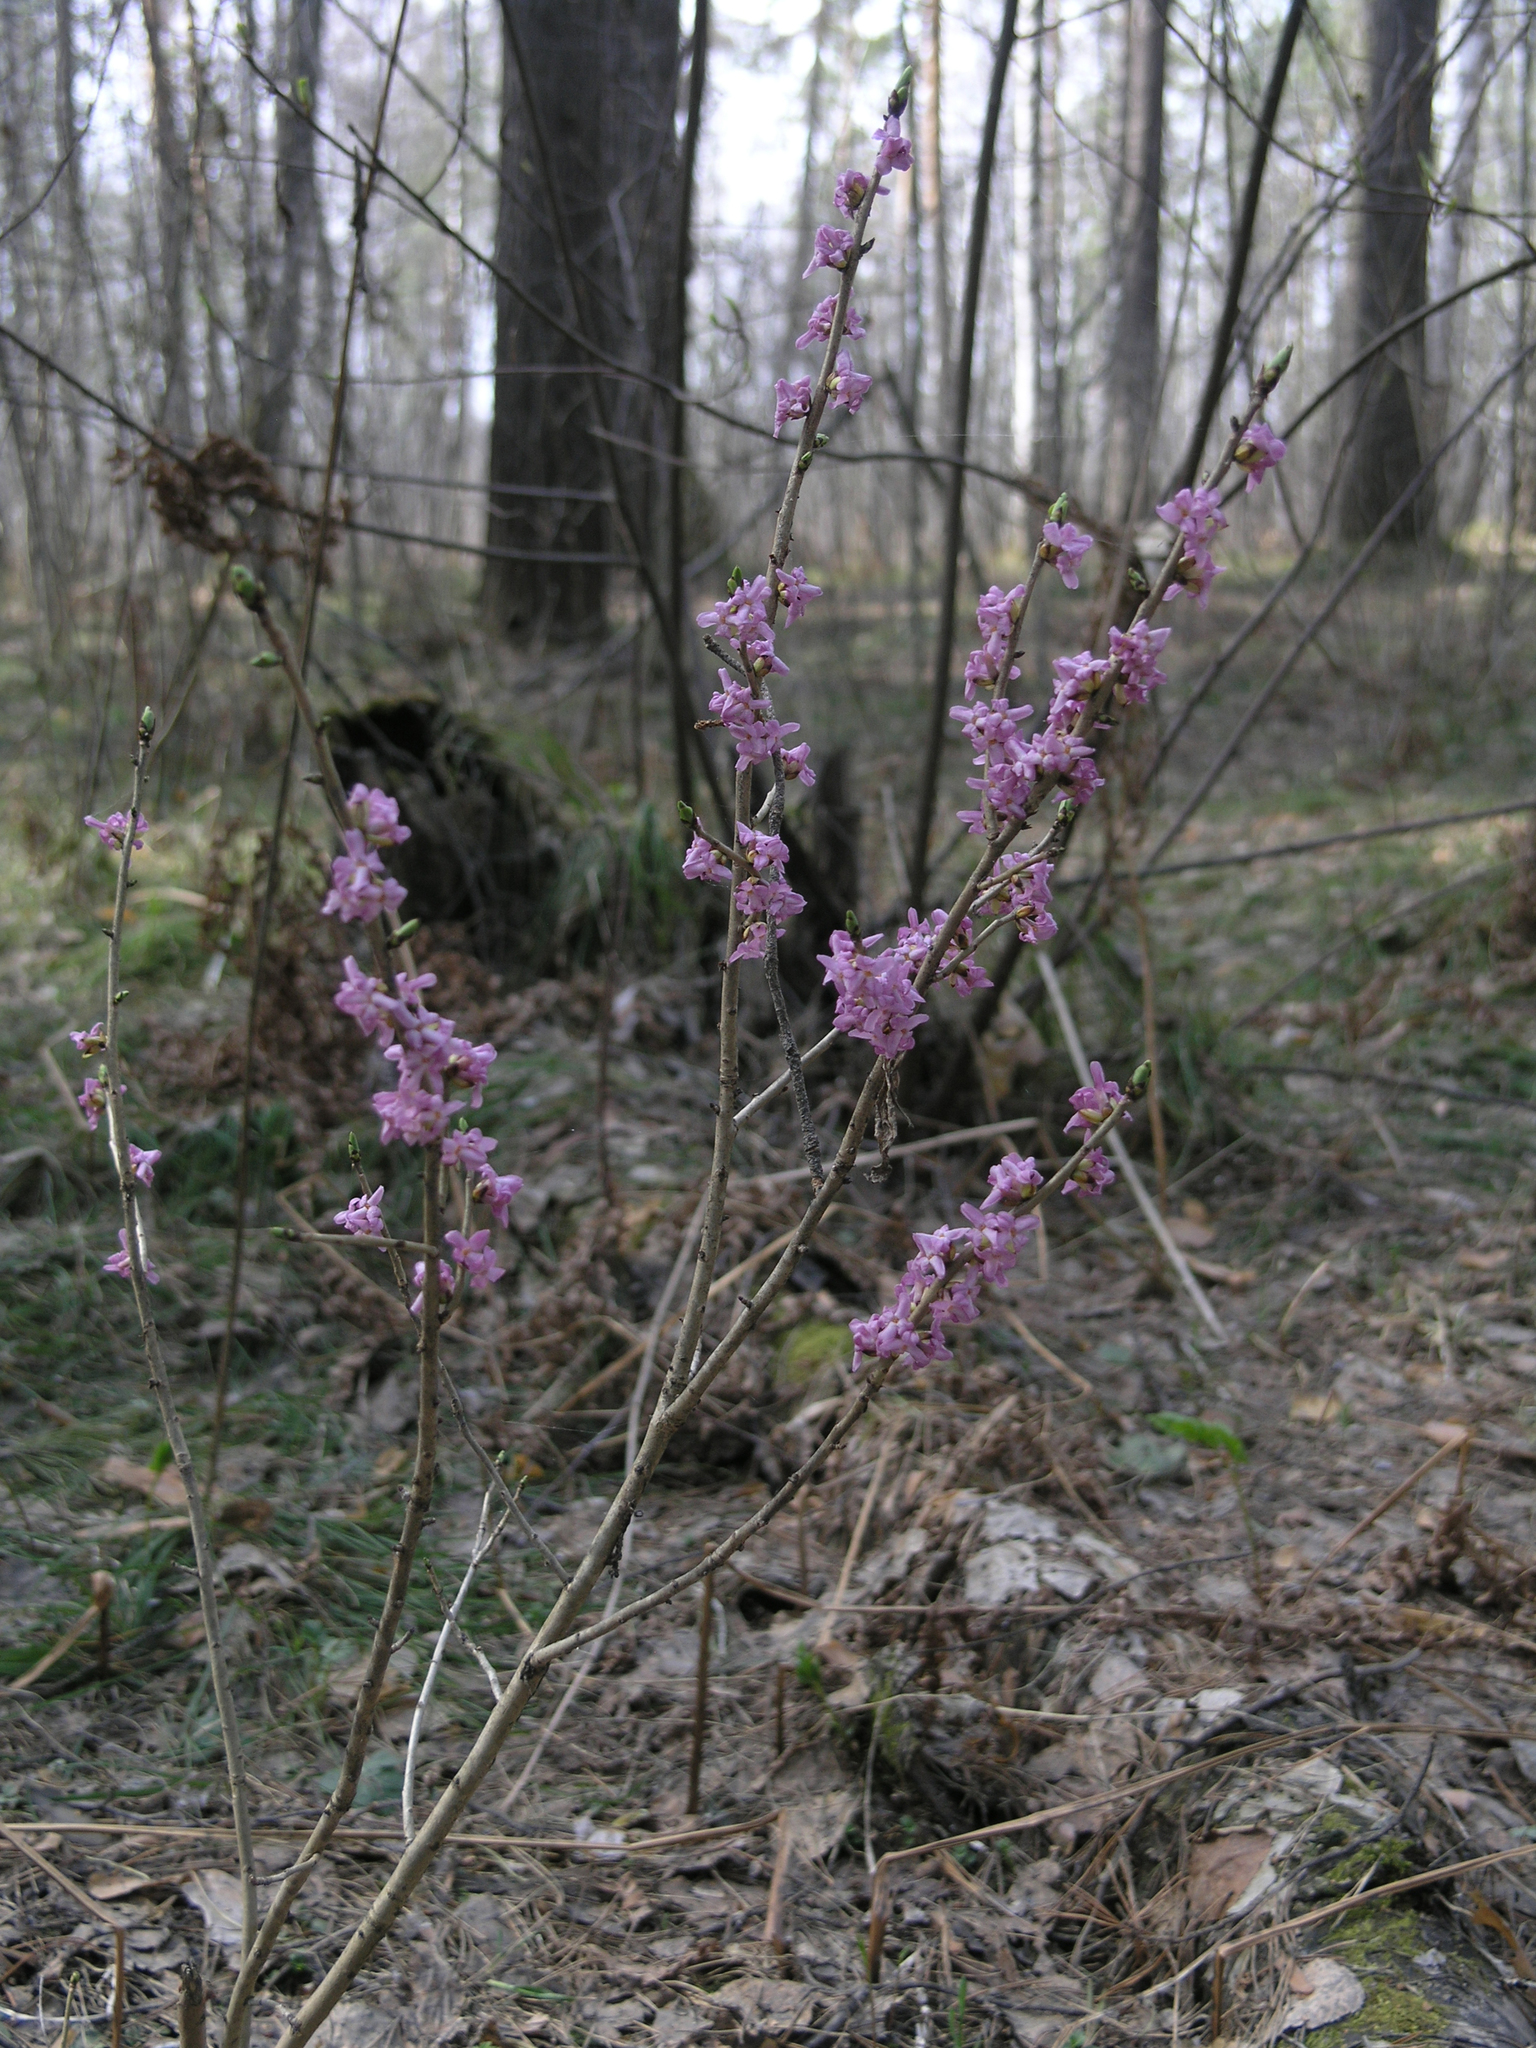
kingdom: Plantae
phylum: Tracheophyta
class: Magnoliopsida
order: Malvales
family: Thymelaeaceae
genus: Daphne
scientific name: Daphne mezereum
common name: Mezereon
